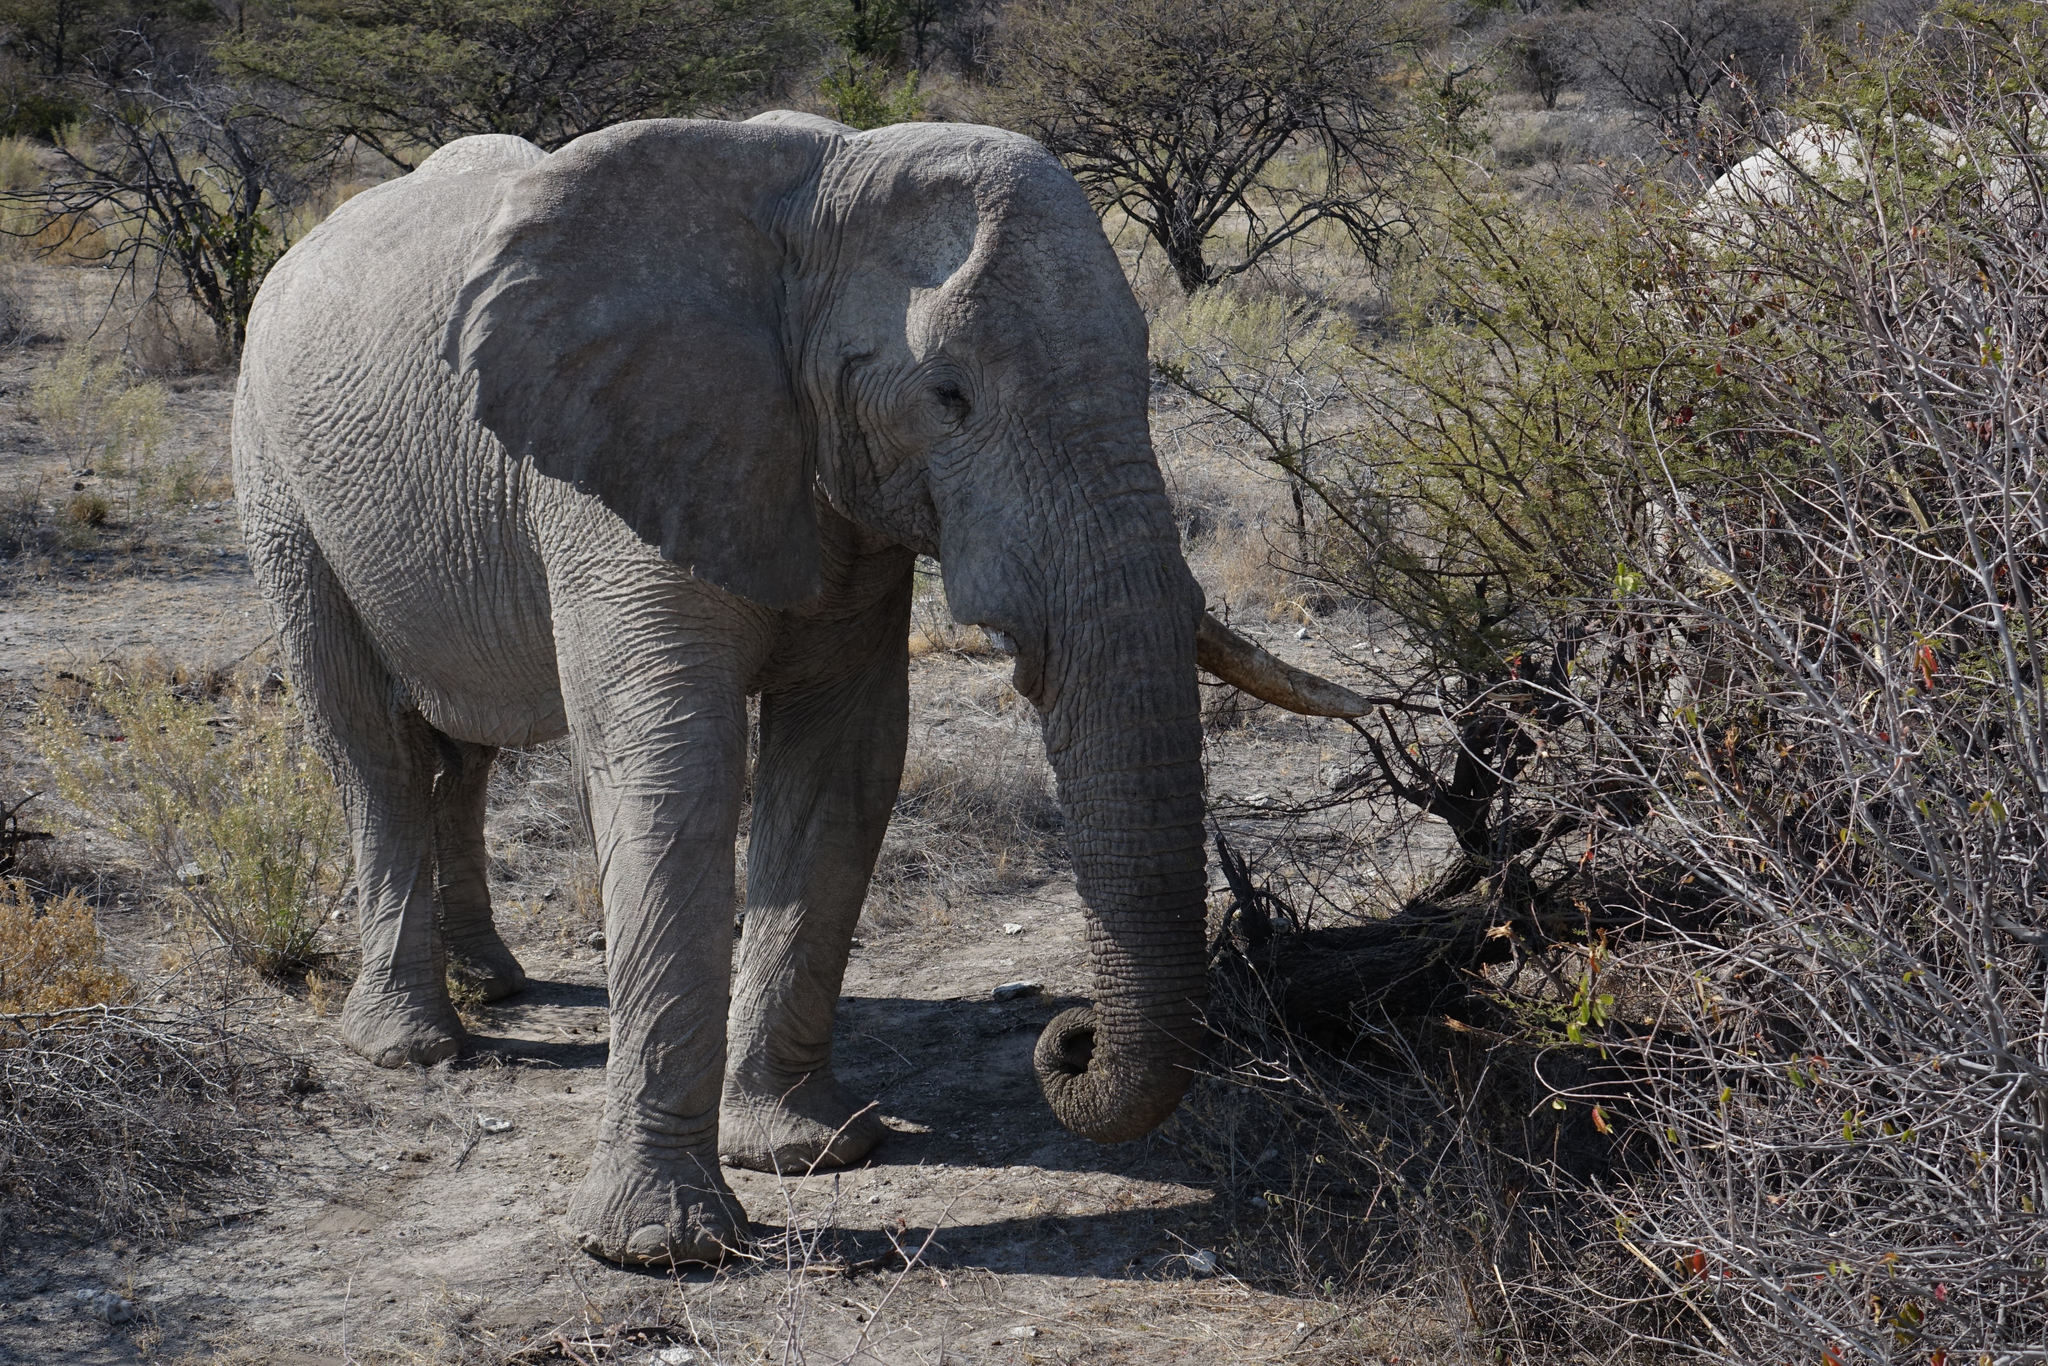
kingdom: Animalia
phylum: Chordata
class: Mammalia
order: Proboscidea
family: Elephantidae
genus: Loxodonta
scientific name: Loxodonta africana
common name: African elephant
